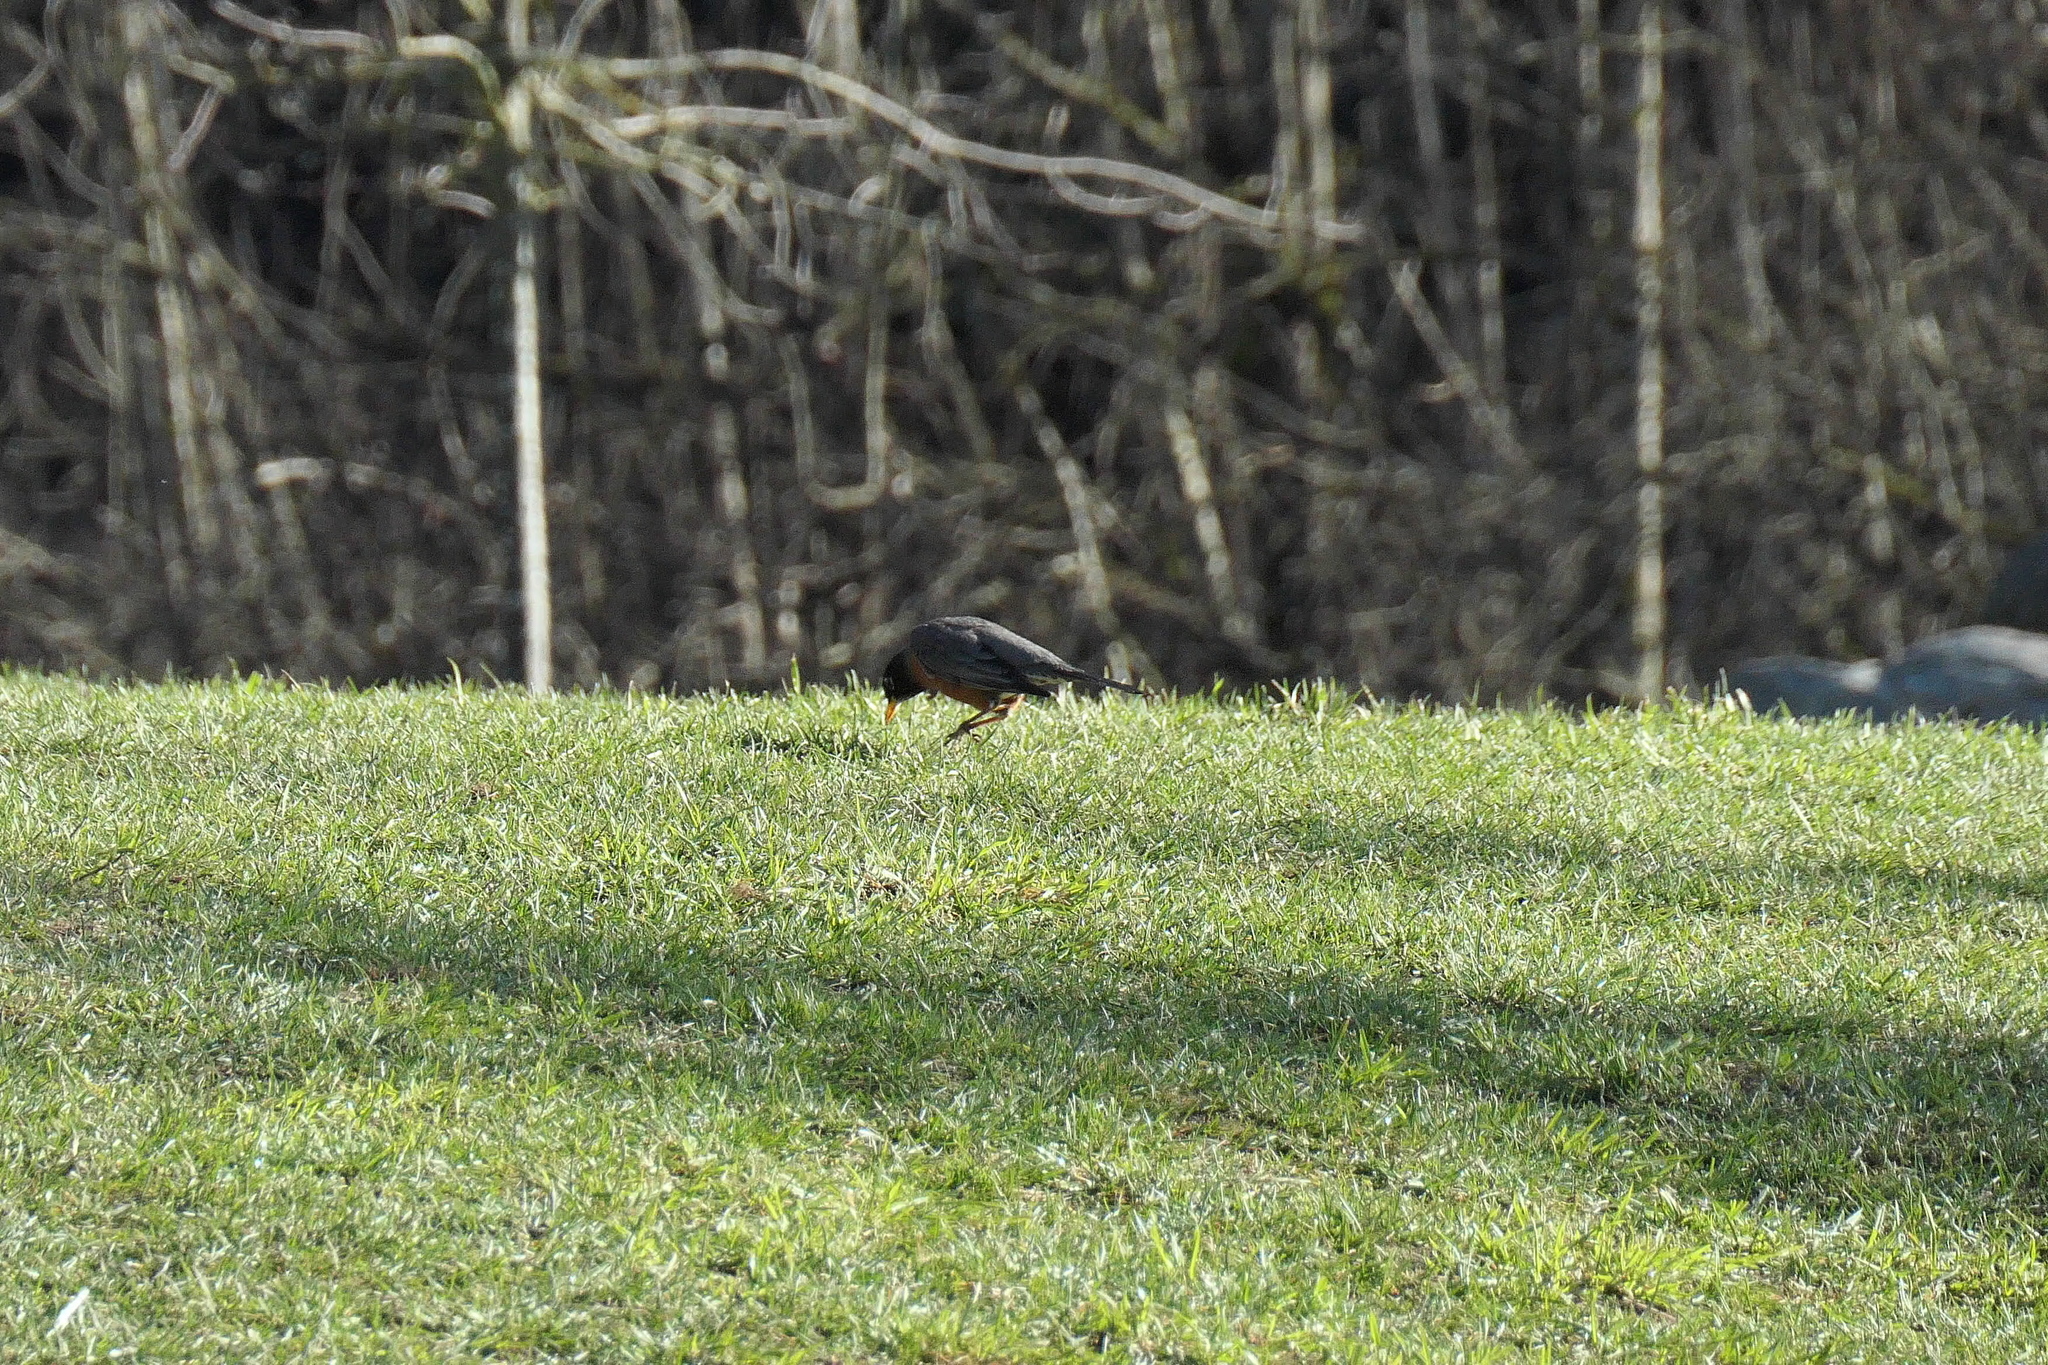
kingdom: Animalia
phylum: Chordata
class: Aves
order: Passeriformes
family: Turdidae
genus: Turdus
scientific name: Turdus migratorius
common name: American robin
